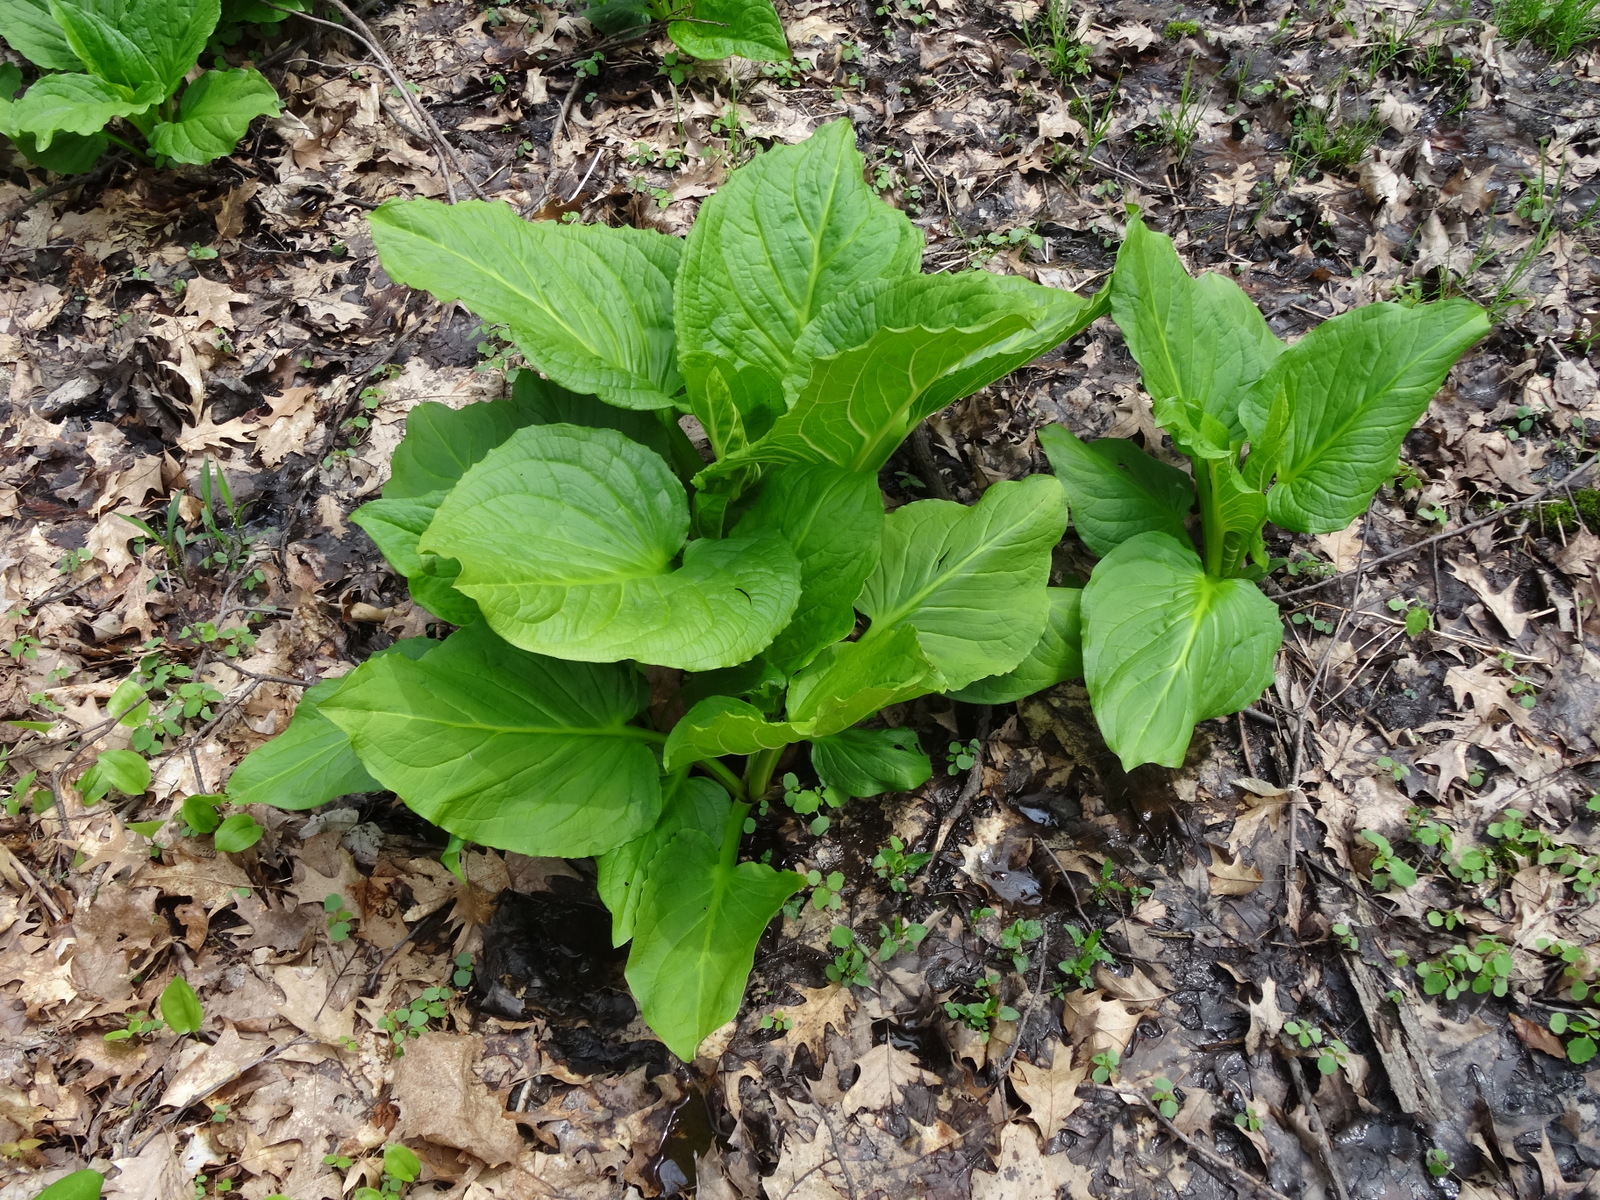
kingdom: Plantae
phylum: Tracheophyta
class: Liliopsida
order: Alismatales
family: Araceae
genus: Symplocarpus
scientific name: Symplocarpus foetidus
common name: Eastern skunk cabbage
